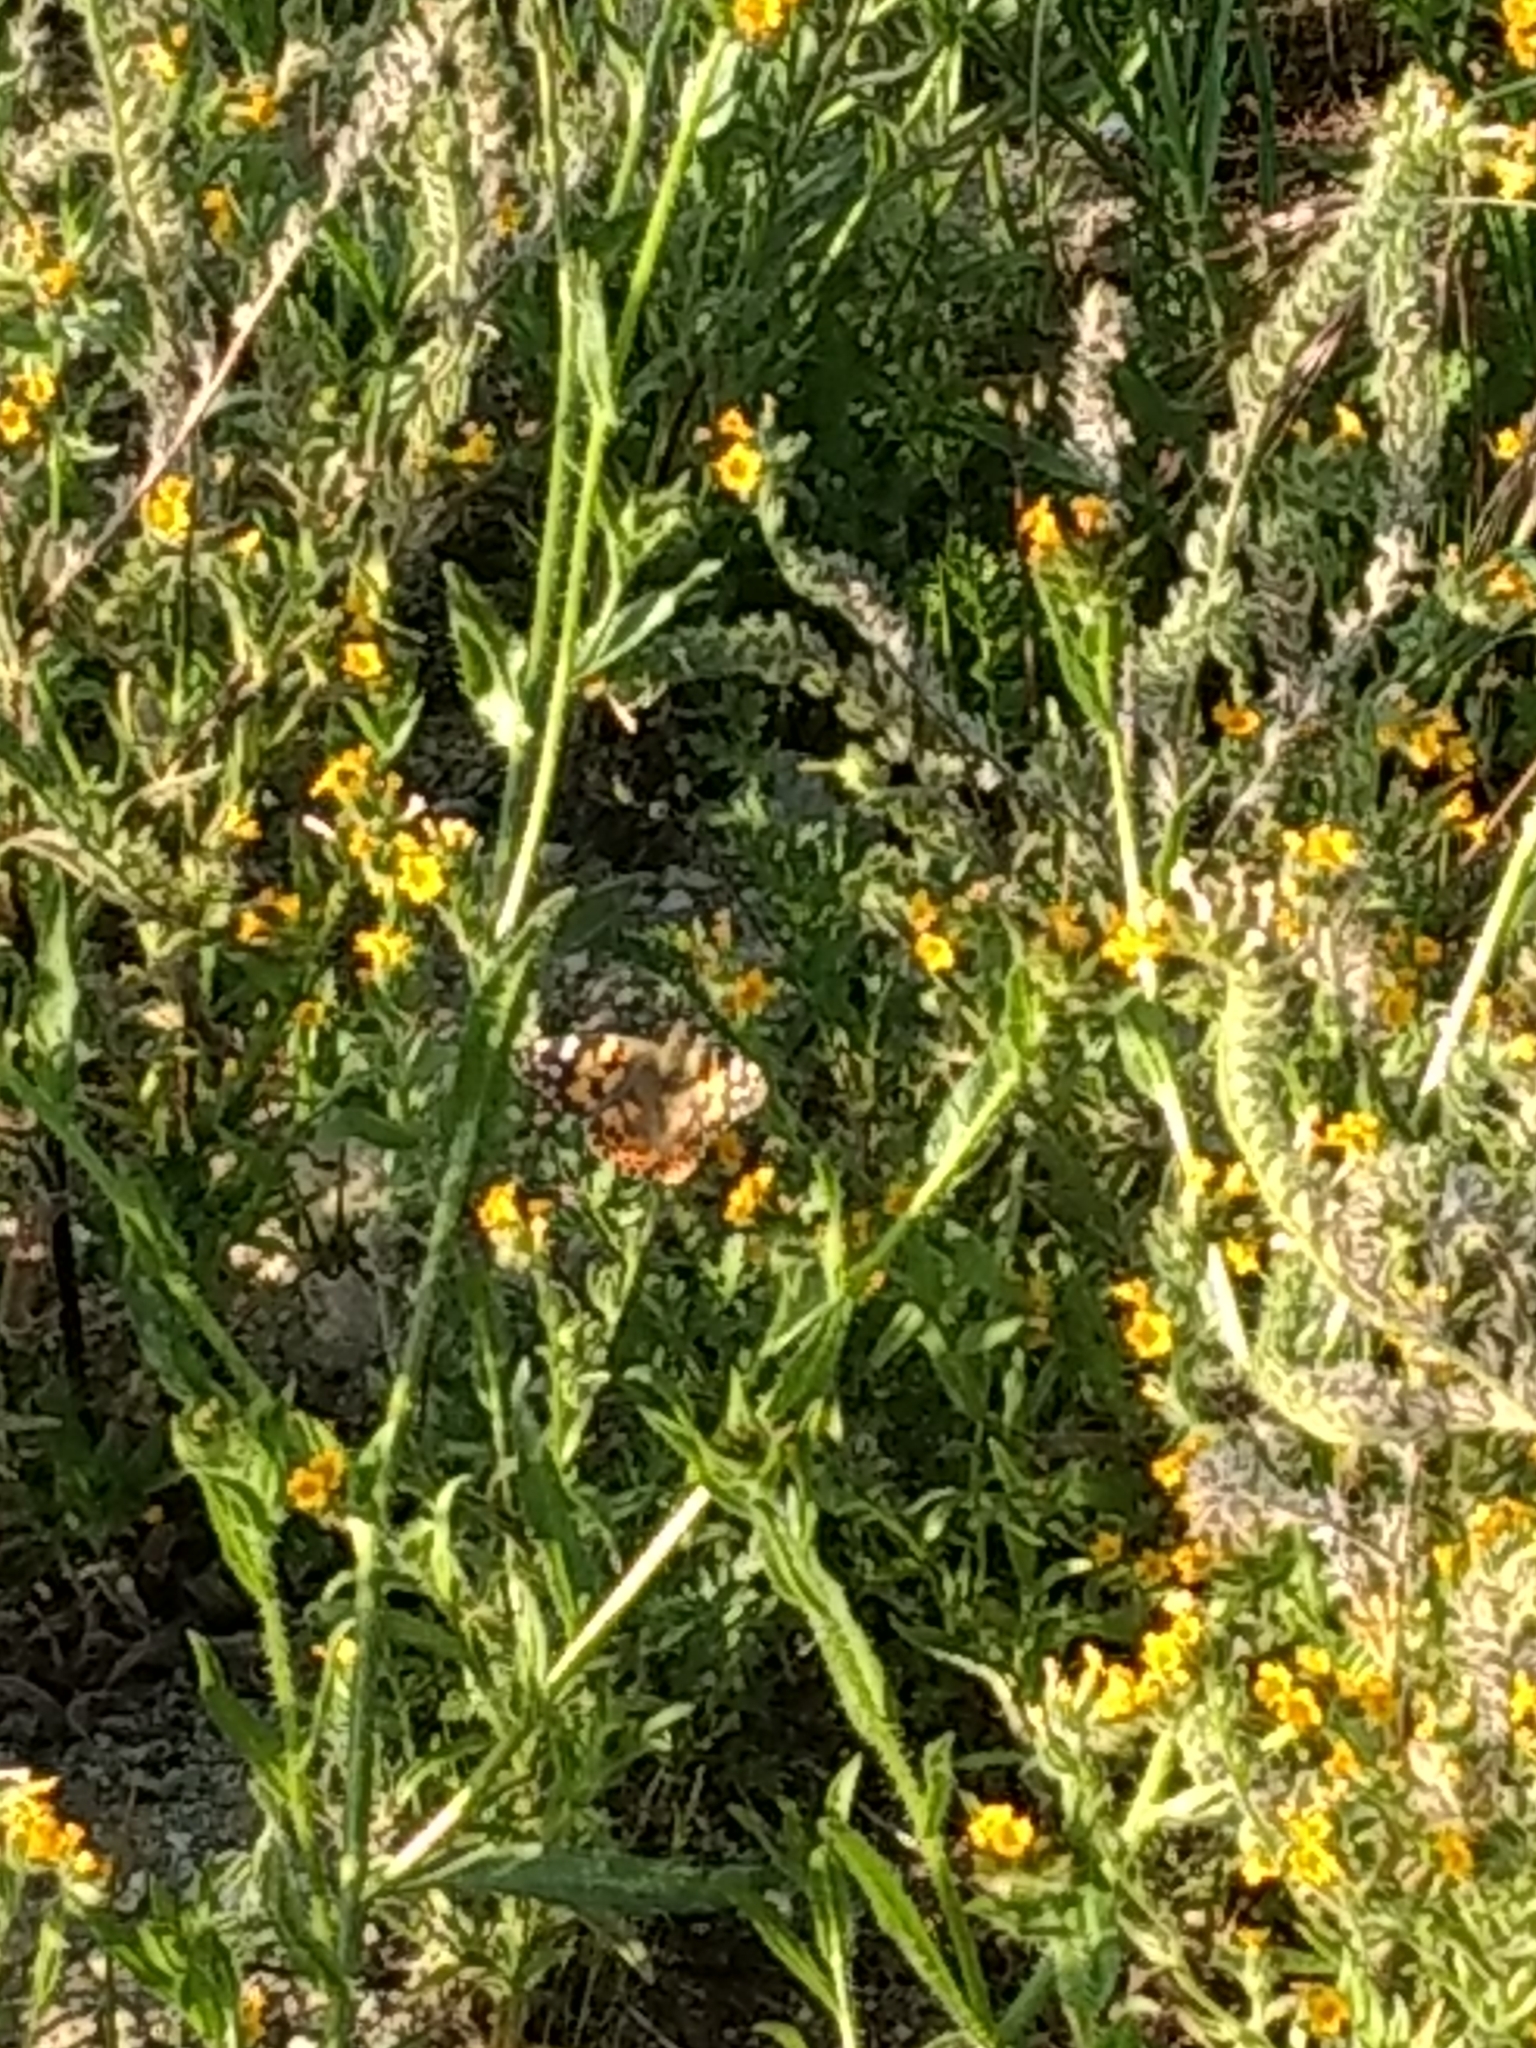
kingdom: Animalia
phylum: Arthropoda
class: Insecta
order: Lepidoptera
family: Nymphalidae
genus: Vanessa
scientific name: Vanessa cardui
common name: Painted lady
